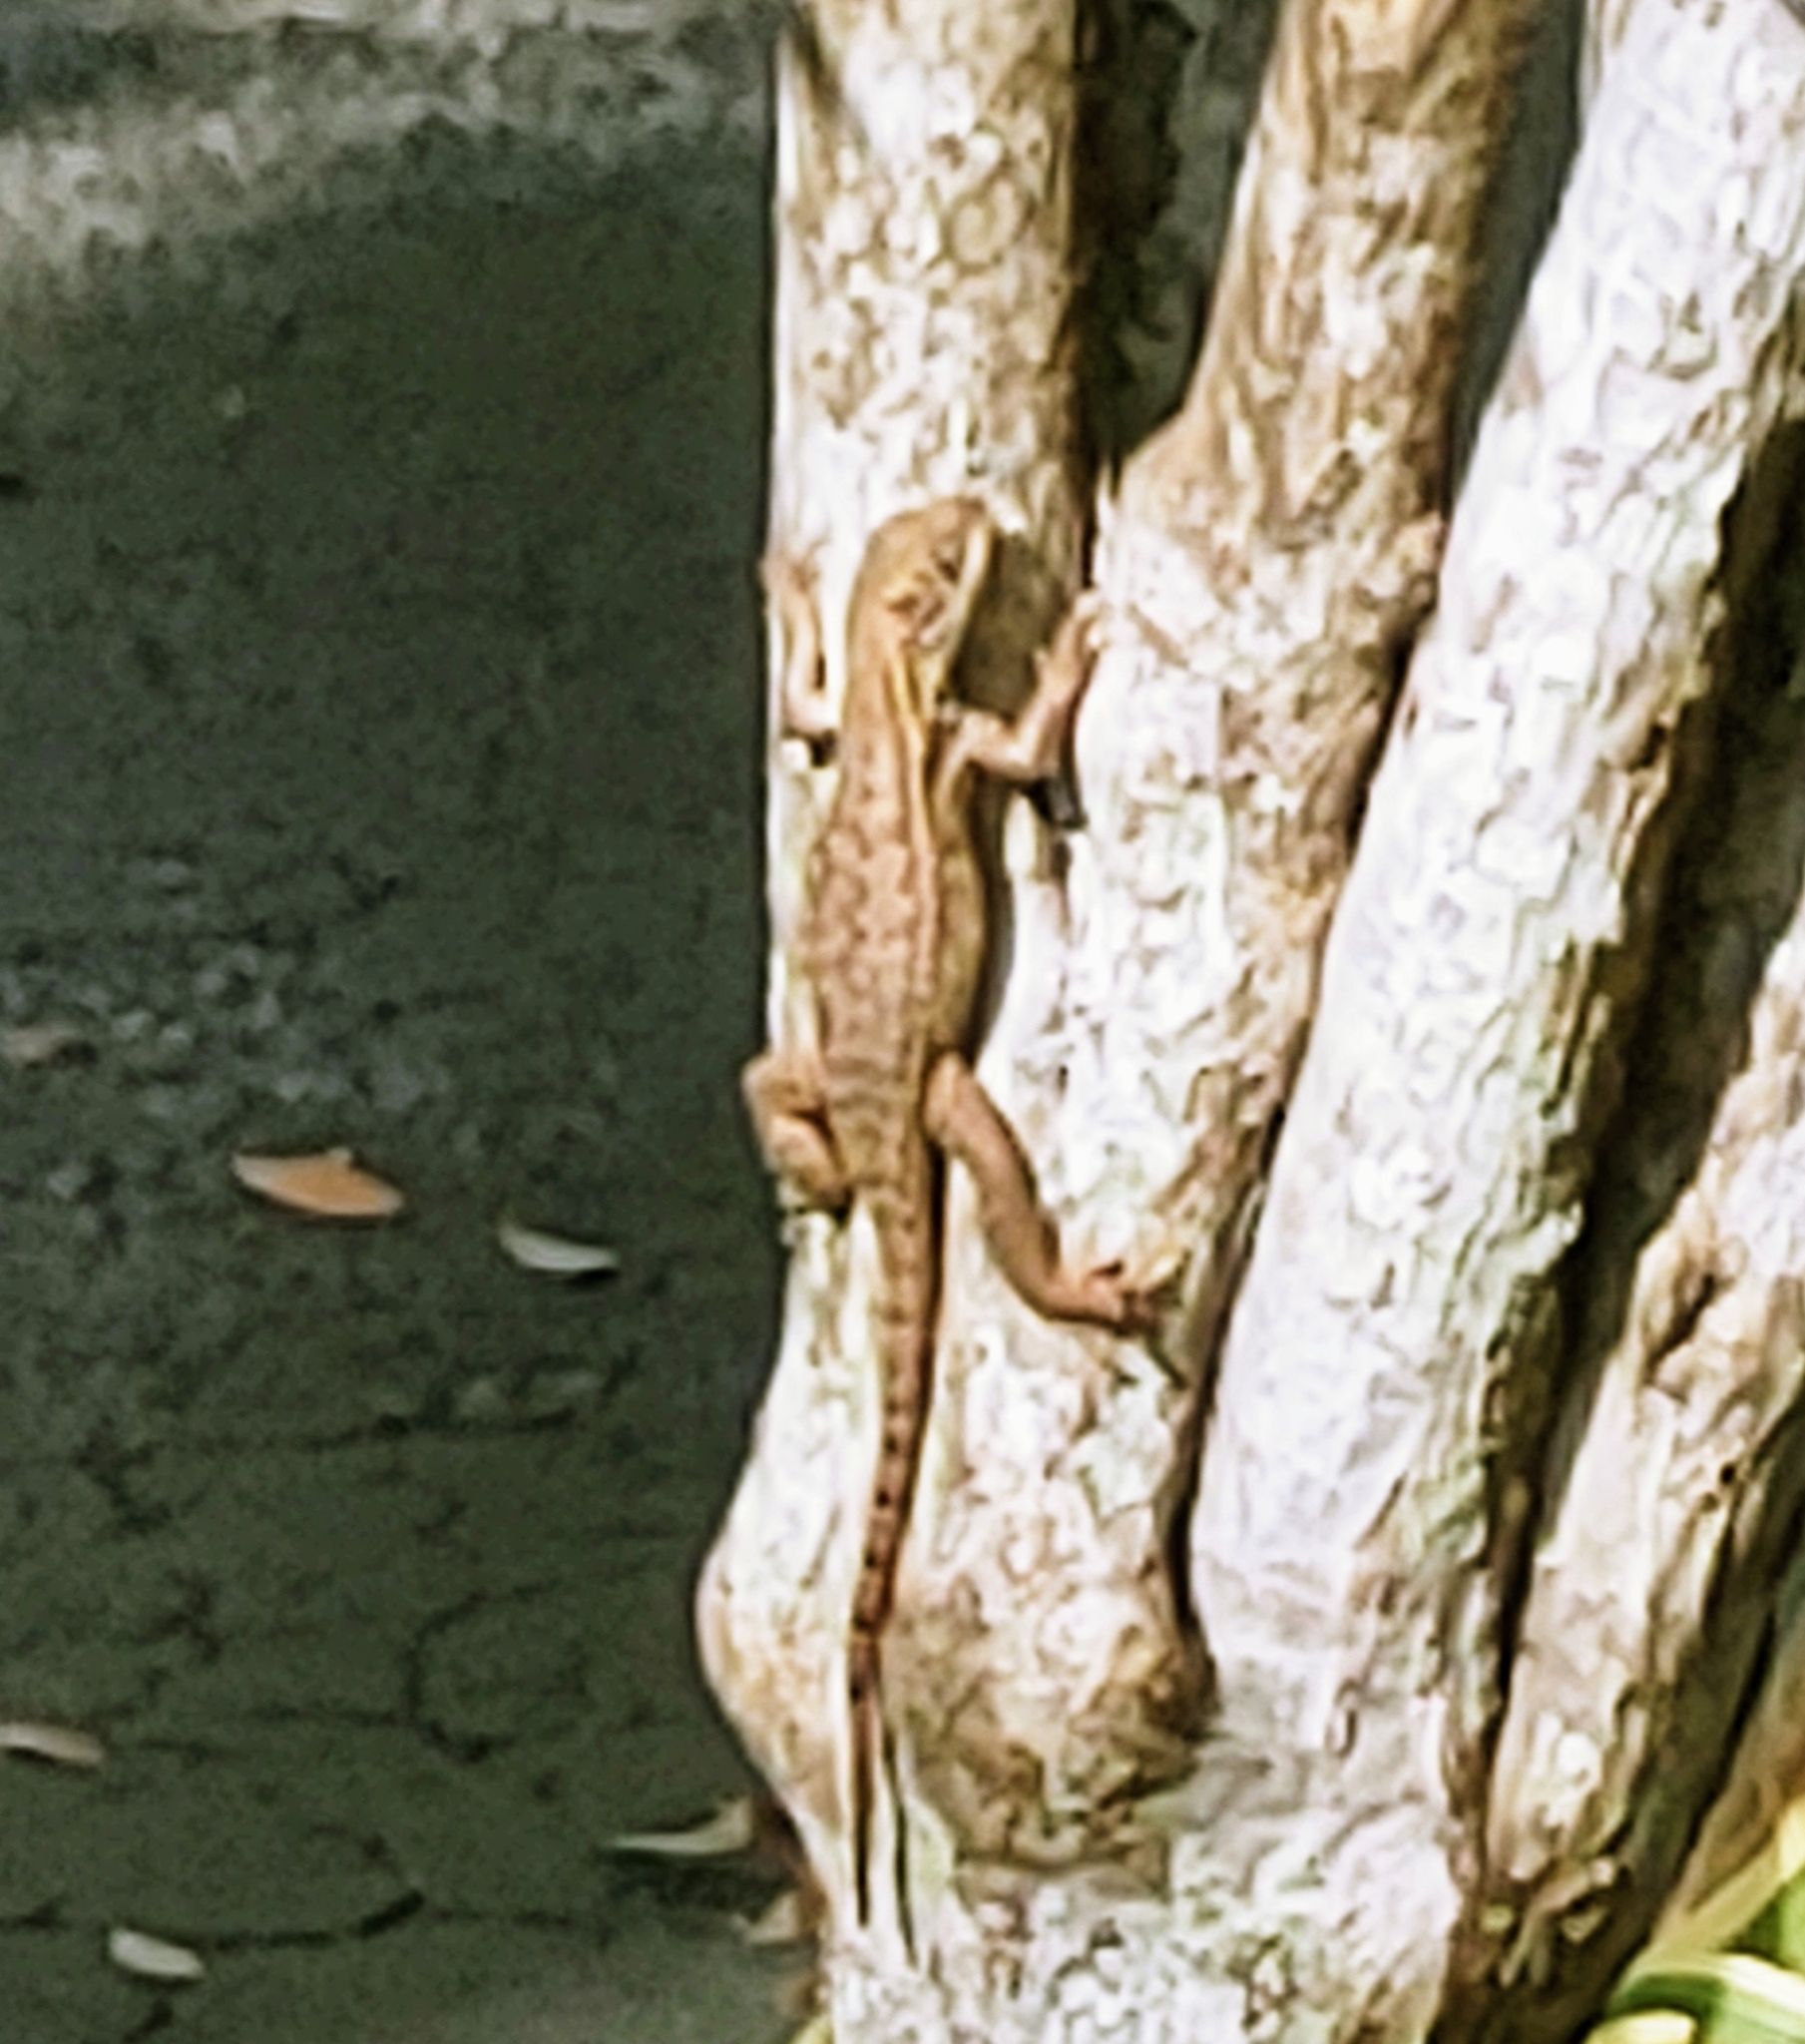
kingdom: Animalia
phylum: Chordata
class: Squamata
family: Leiocephalidae
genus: Leiocephalus
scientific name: Leiocephalus carinatus
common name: Northern curly-tailed lizard
